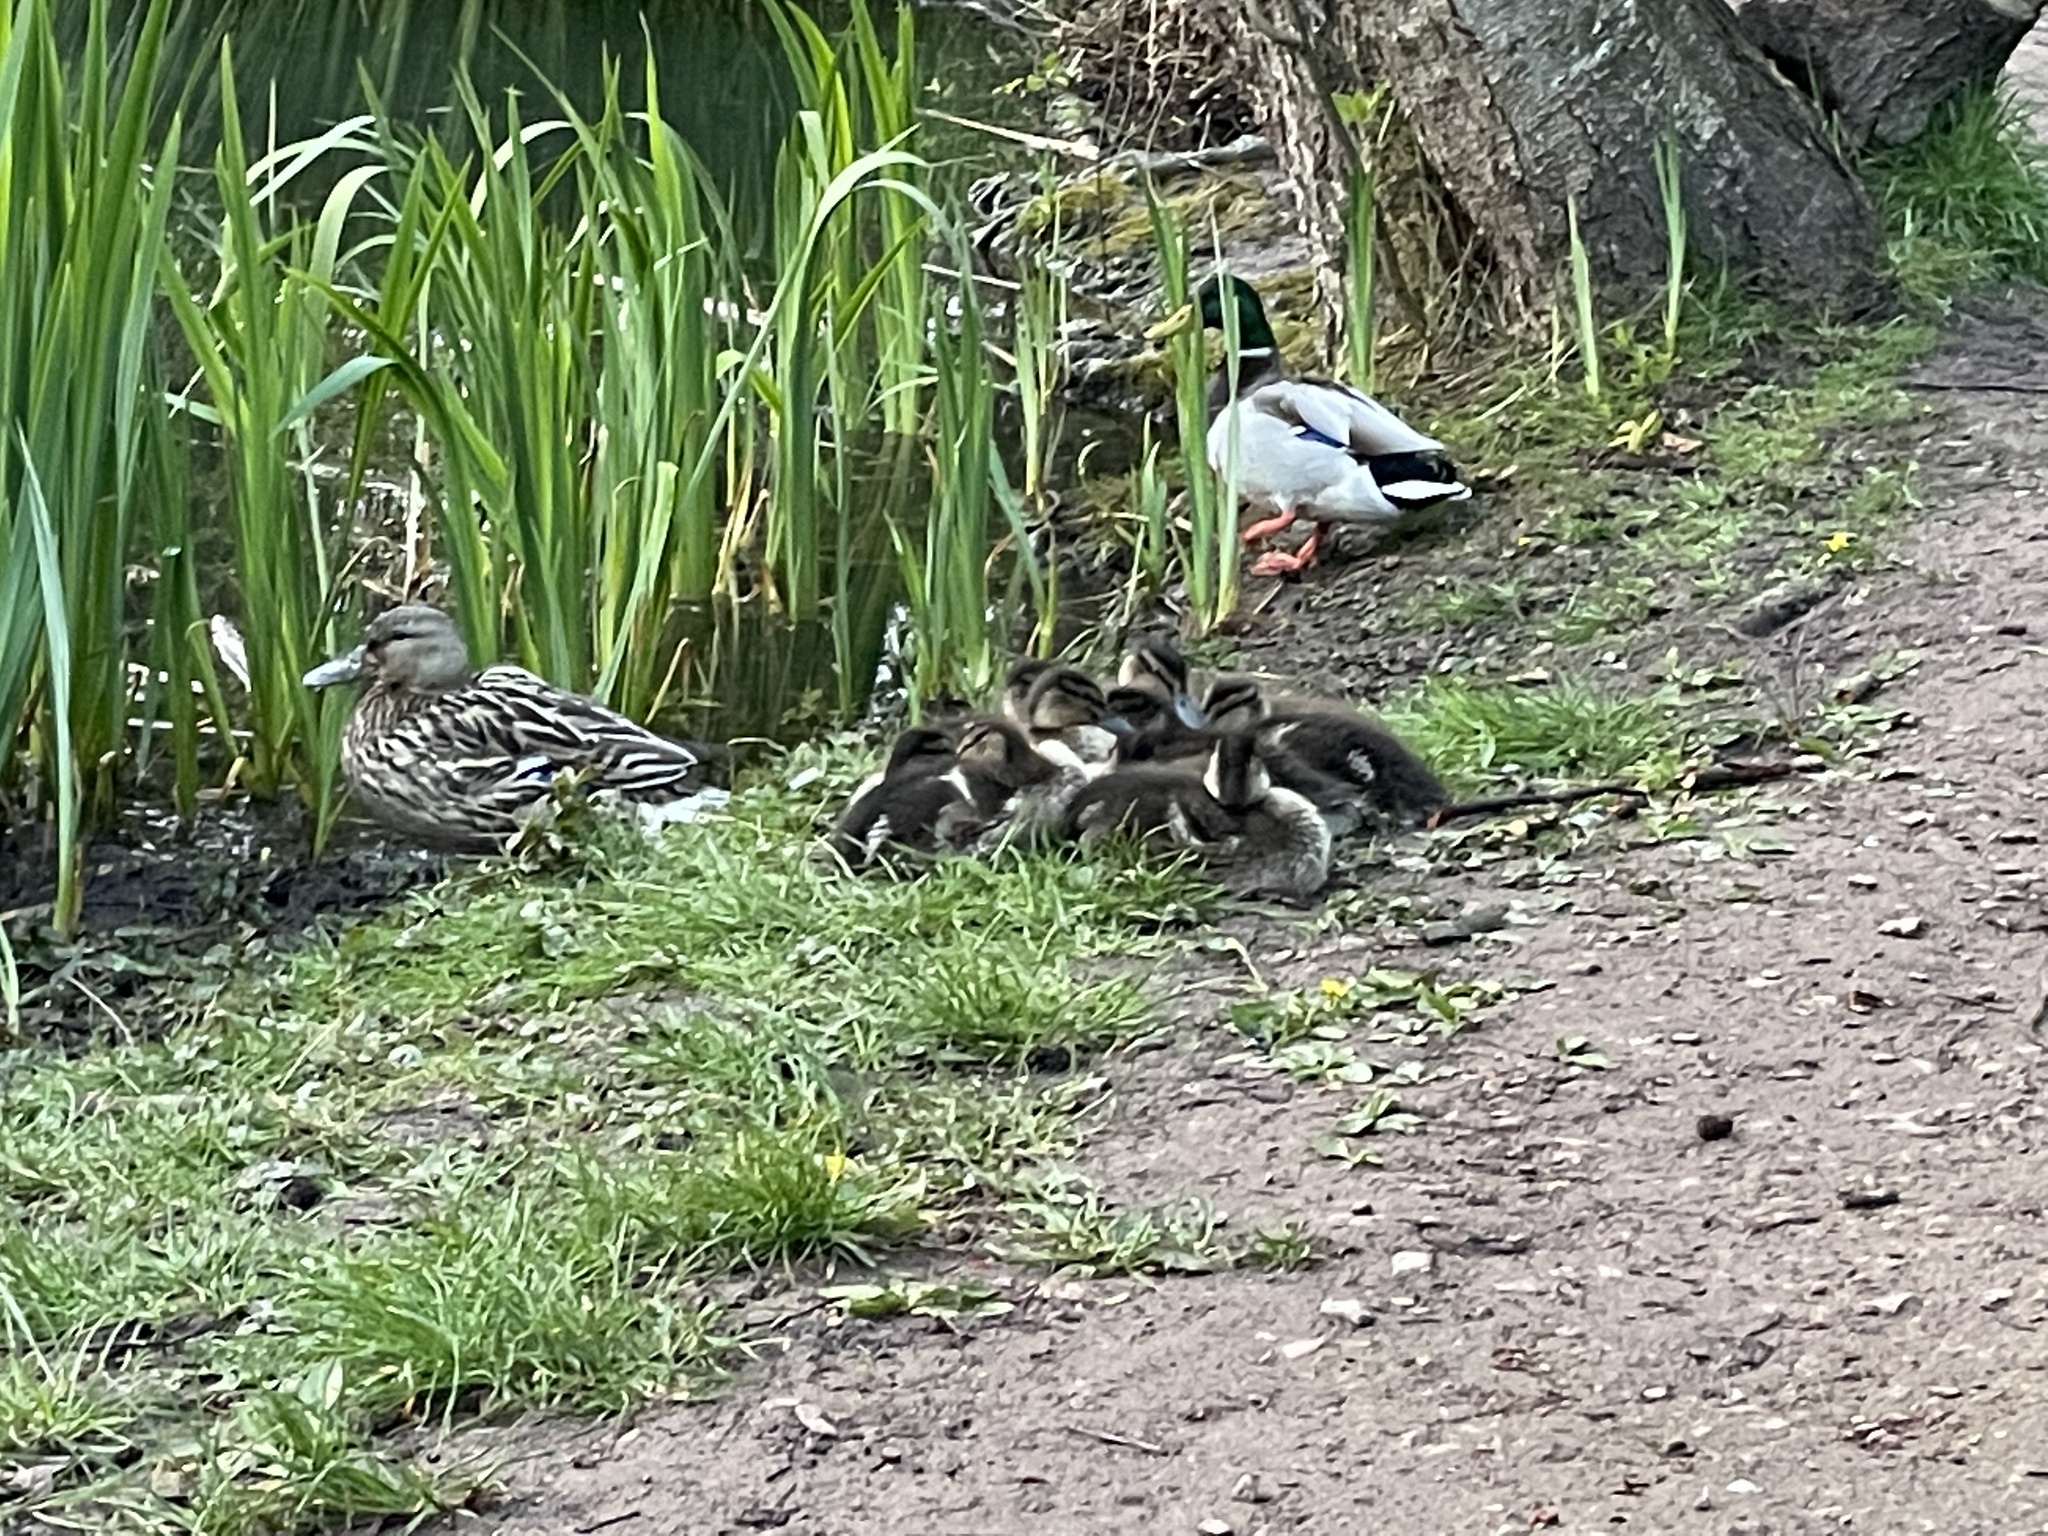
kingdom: Animalia
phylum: Chordata
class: Aves
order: Anseriformes
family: Anatidae
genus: Anas
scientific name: Anas platyrhynchos
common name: Mallard
